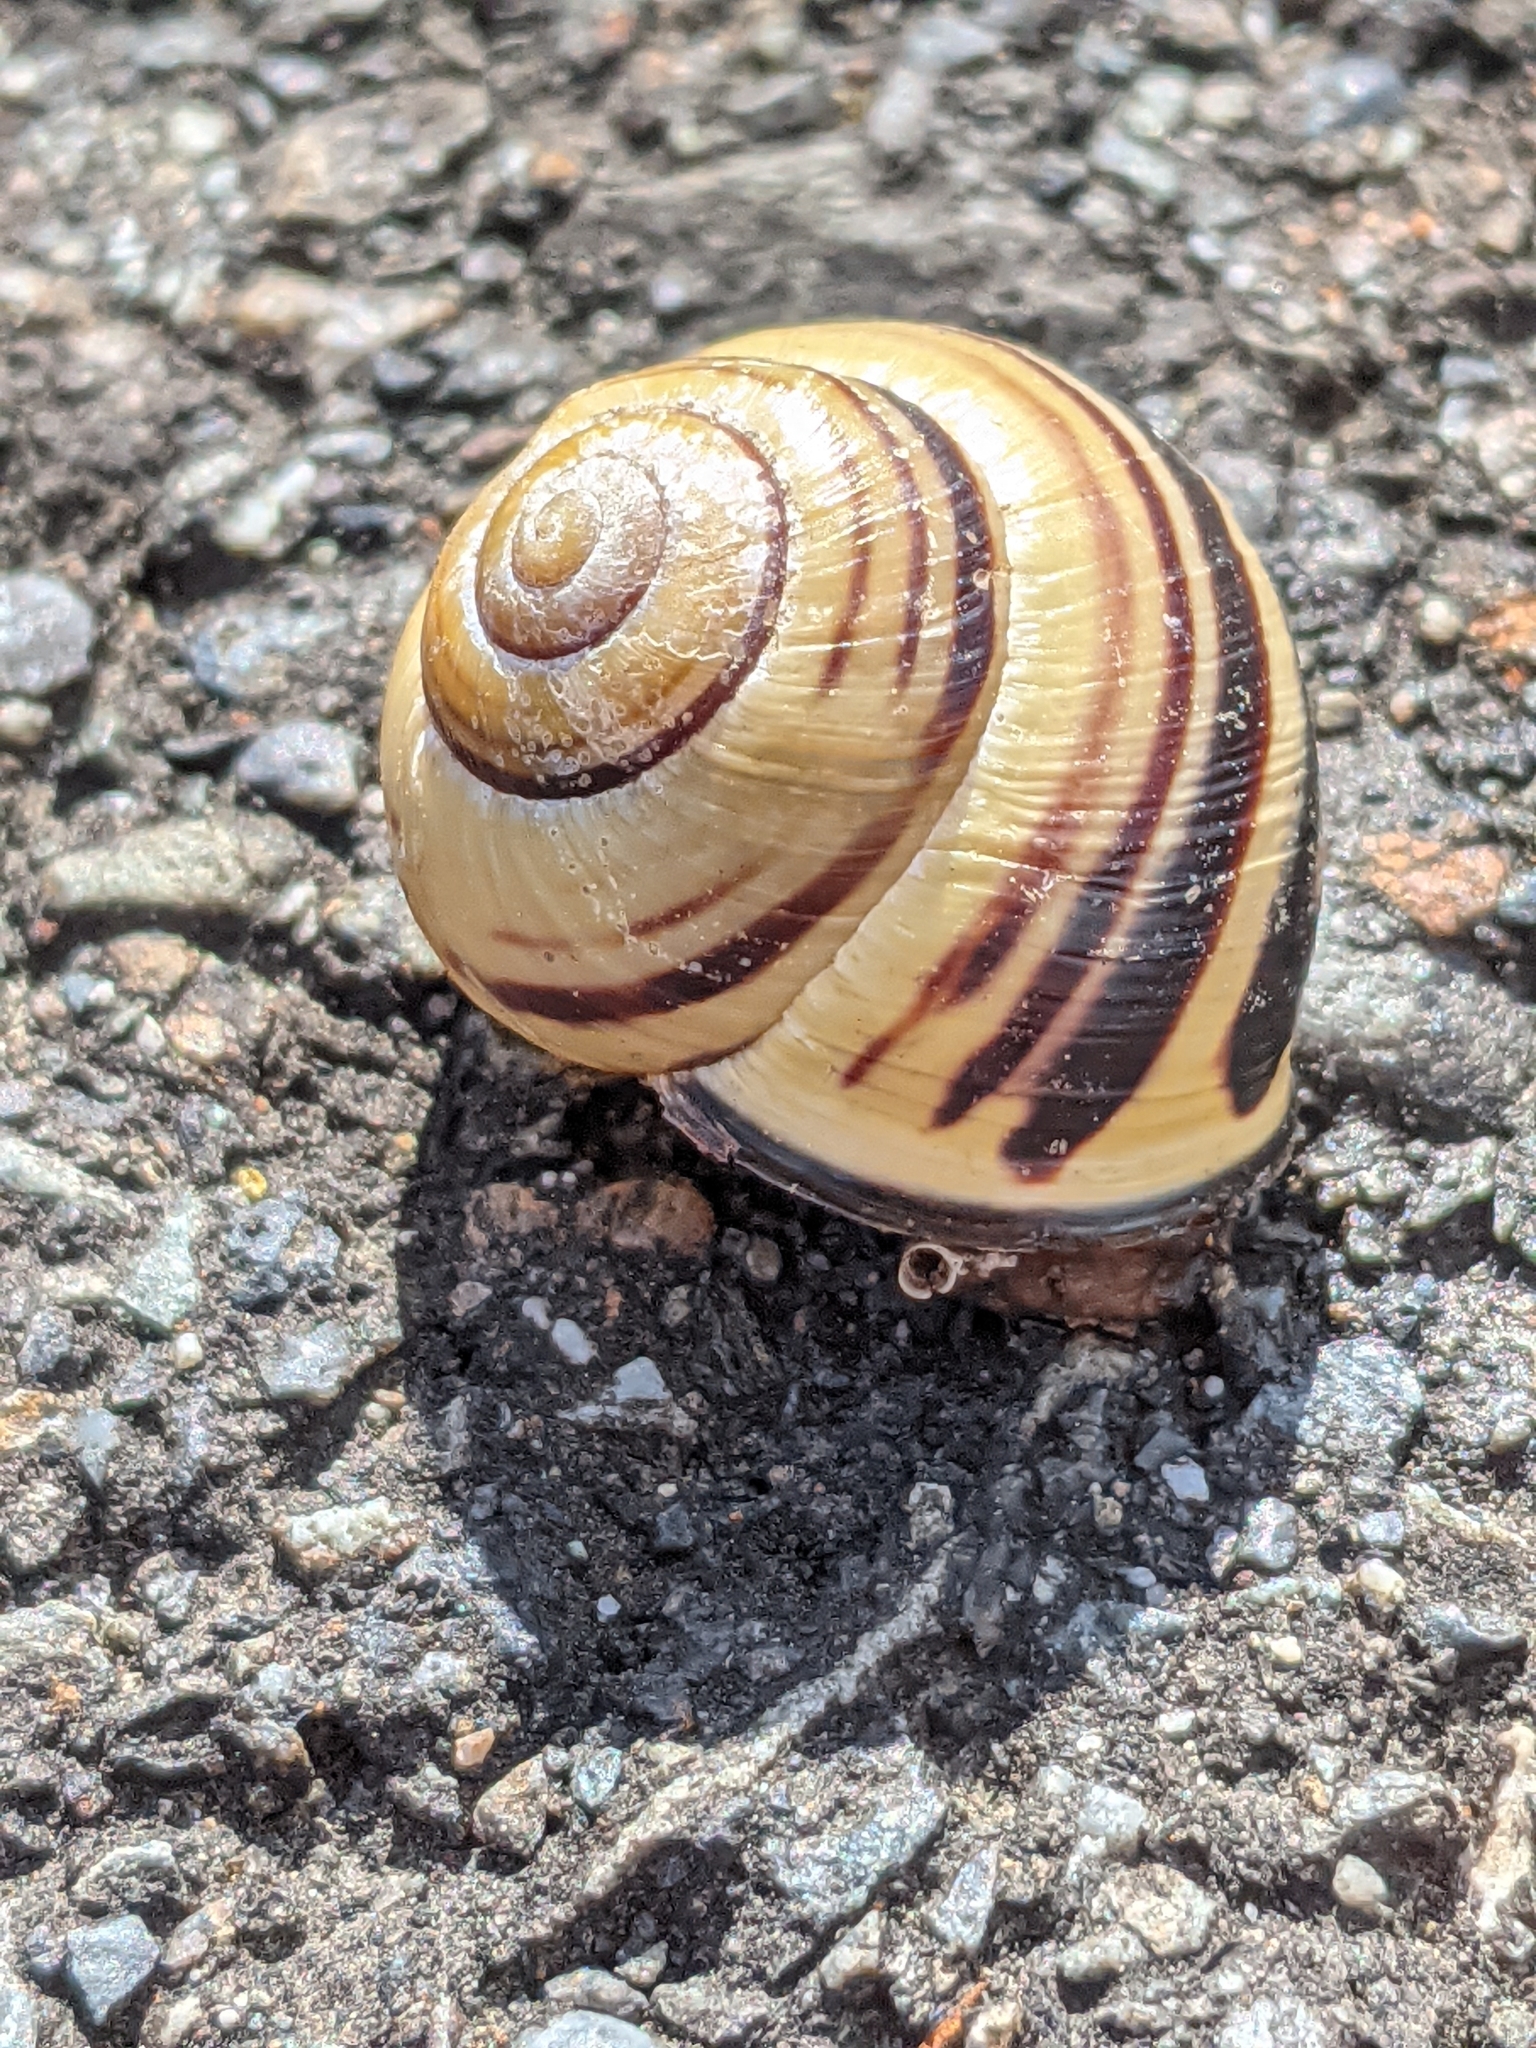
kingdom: Animalia
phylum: Mollusca
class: Gastropoda
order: Stylommatophora
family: Helicidae
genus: Cepaea
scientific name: Cepaea nemoralis
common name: Grovesnail
